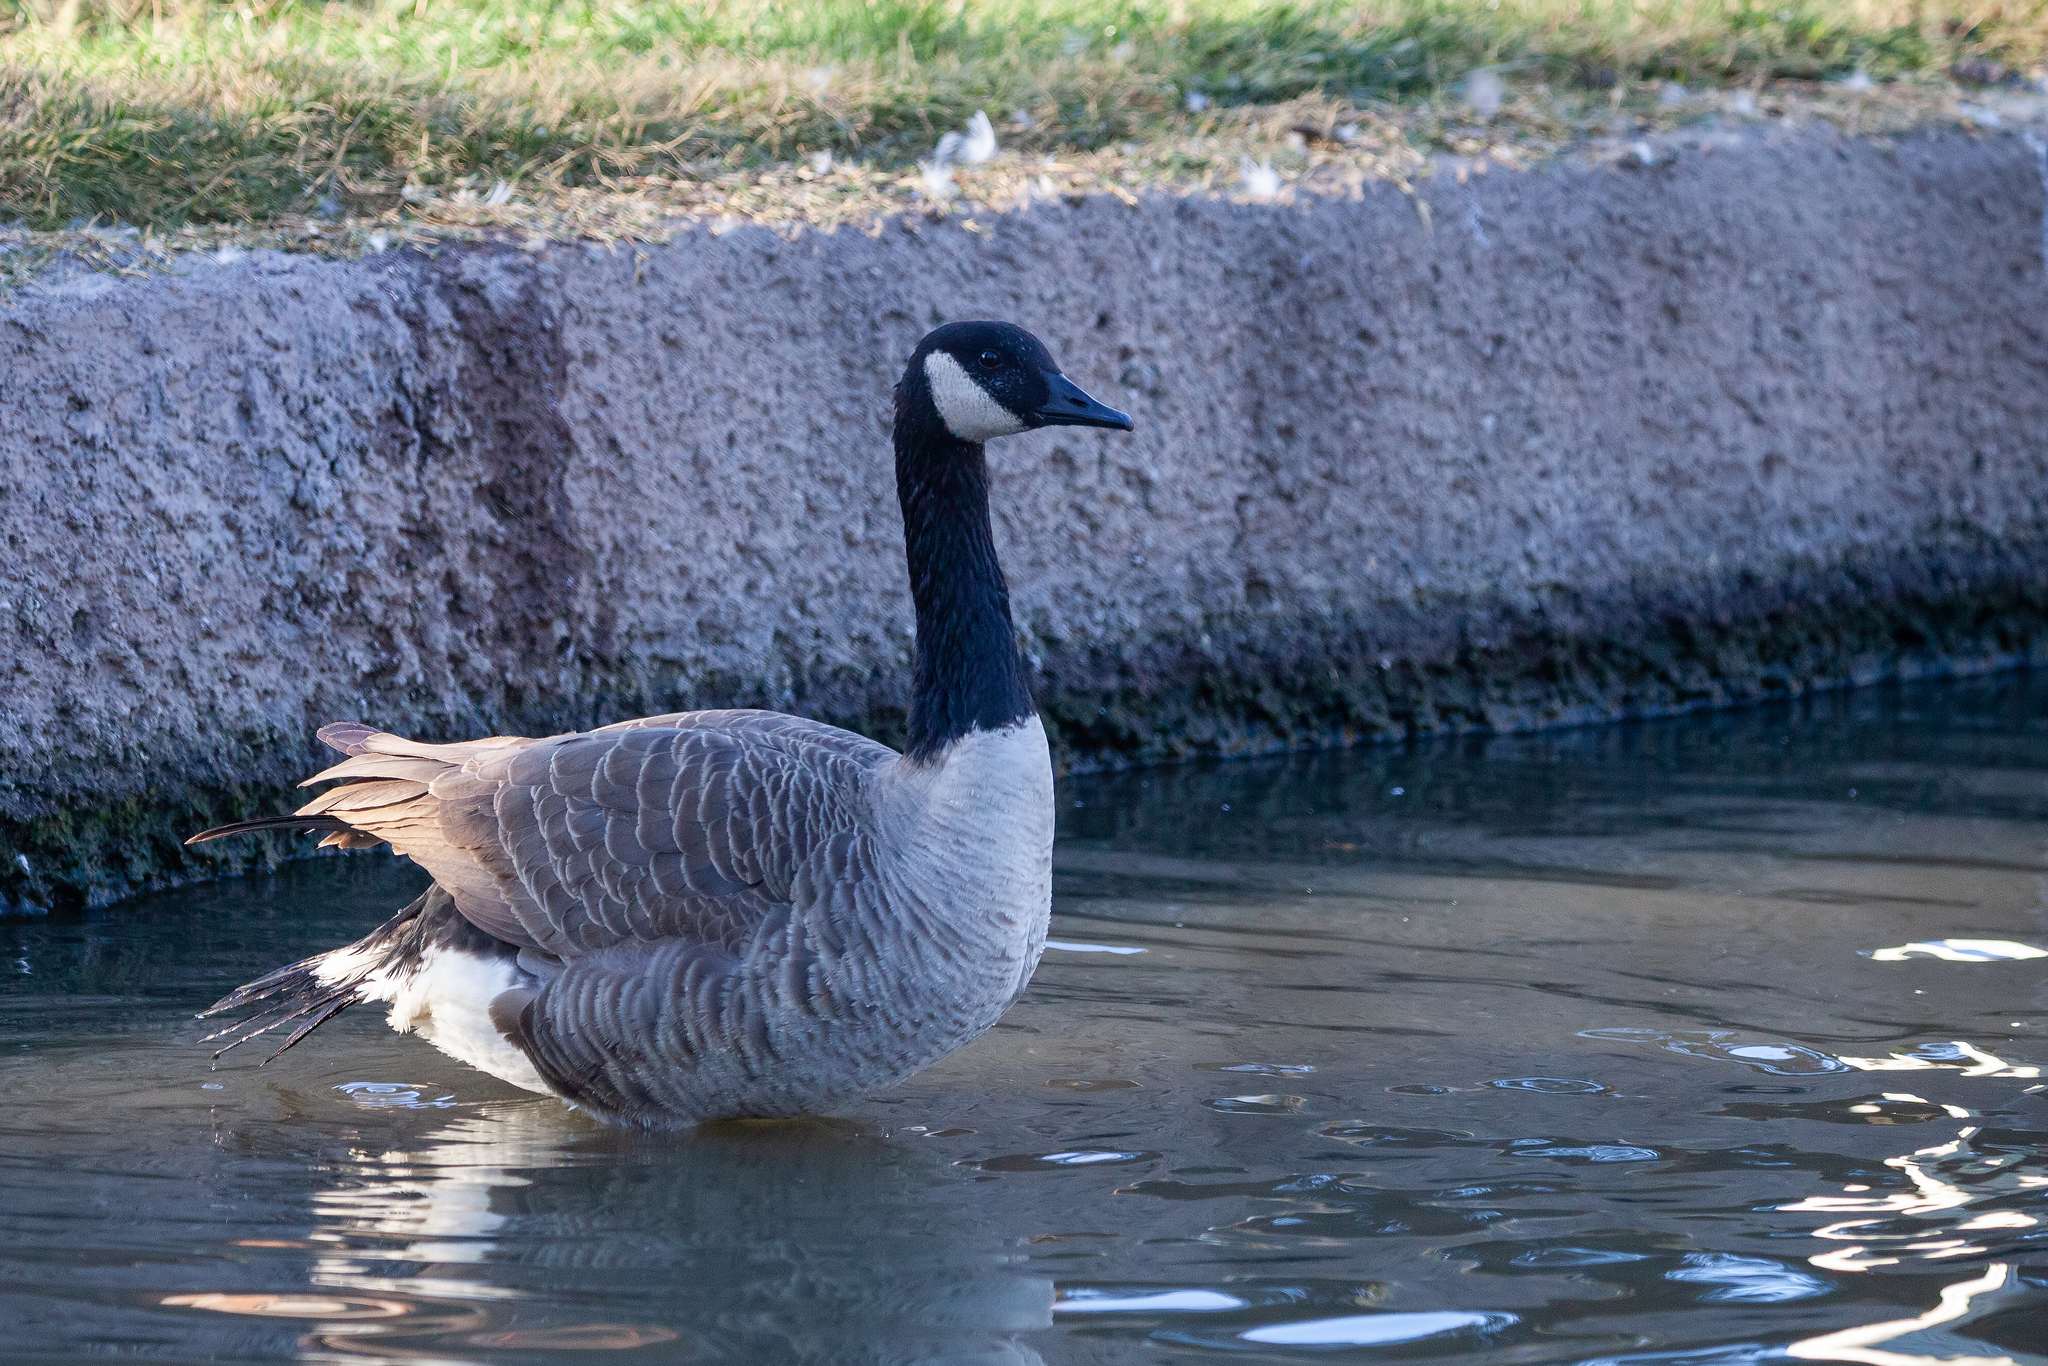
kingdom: Animalia
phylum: Chordata
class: Aves
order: Anseriformes
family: Anatidae
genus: Branta
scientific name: Branta canadensis
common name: Canada goose
